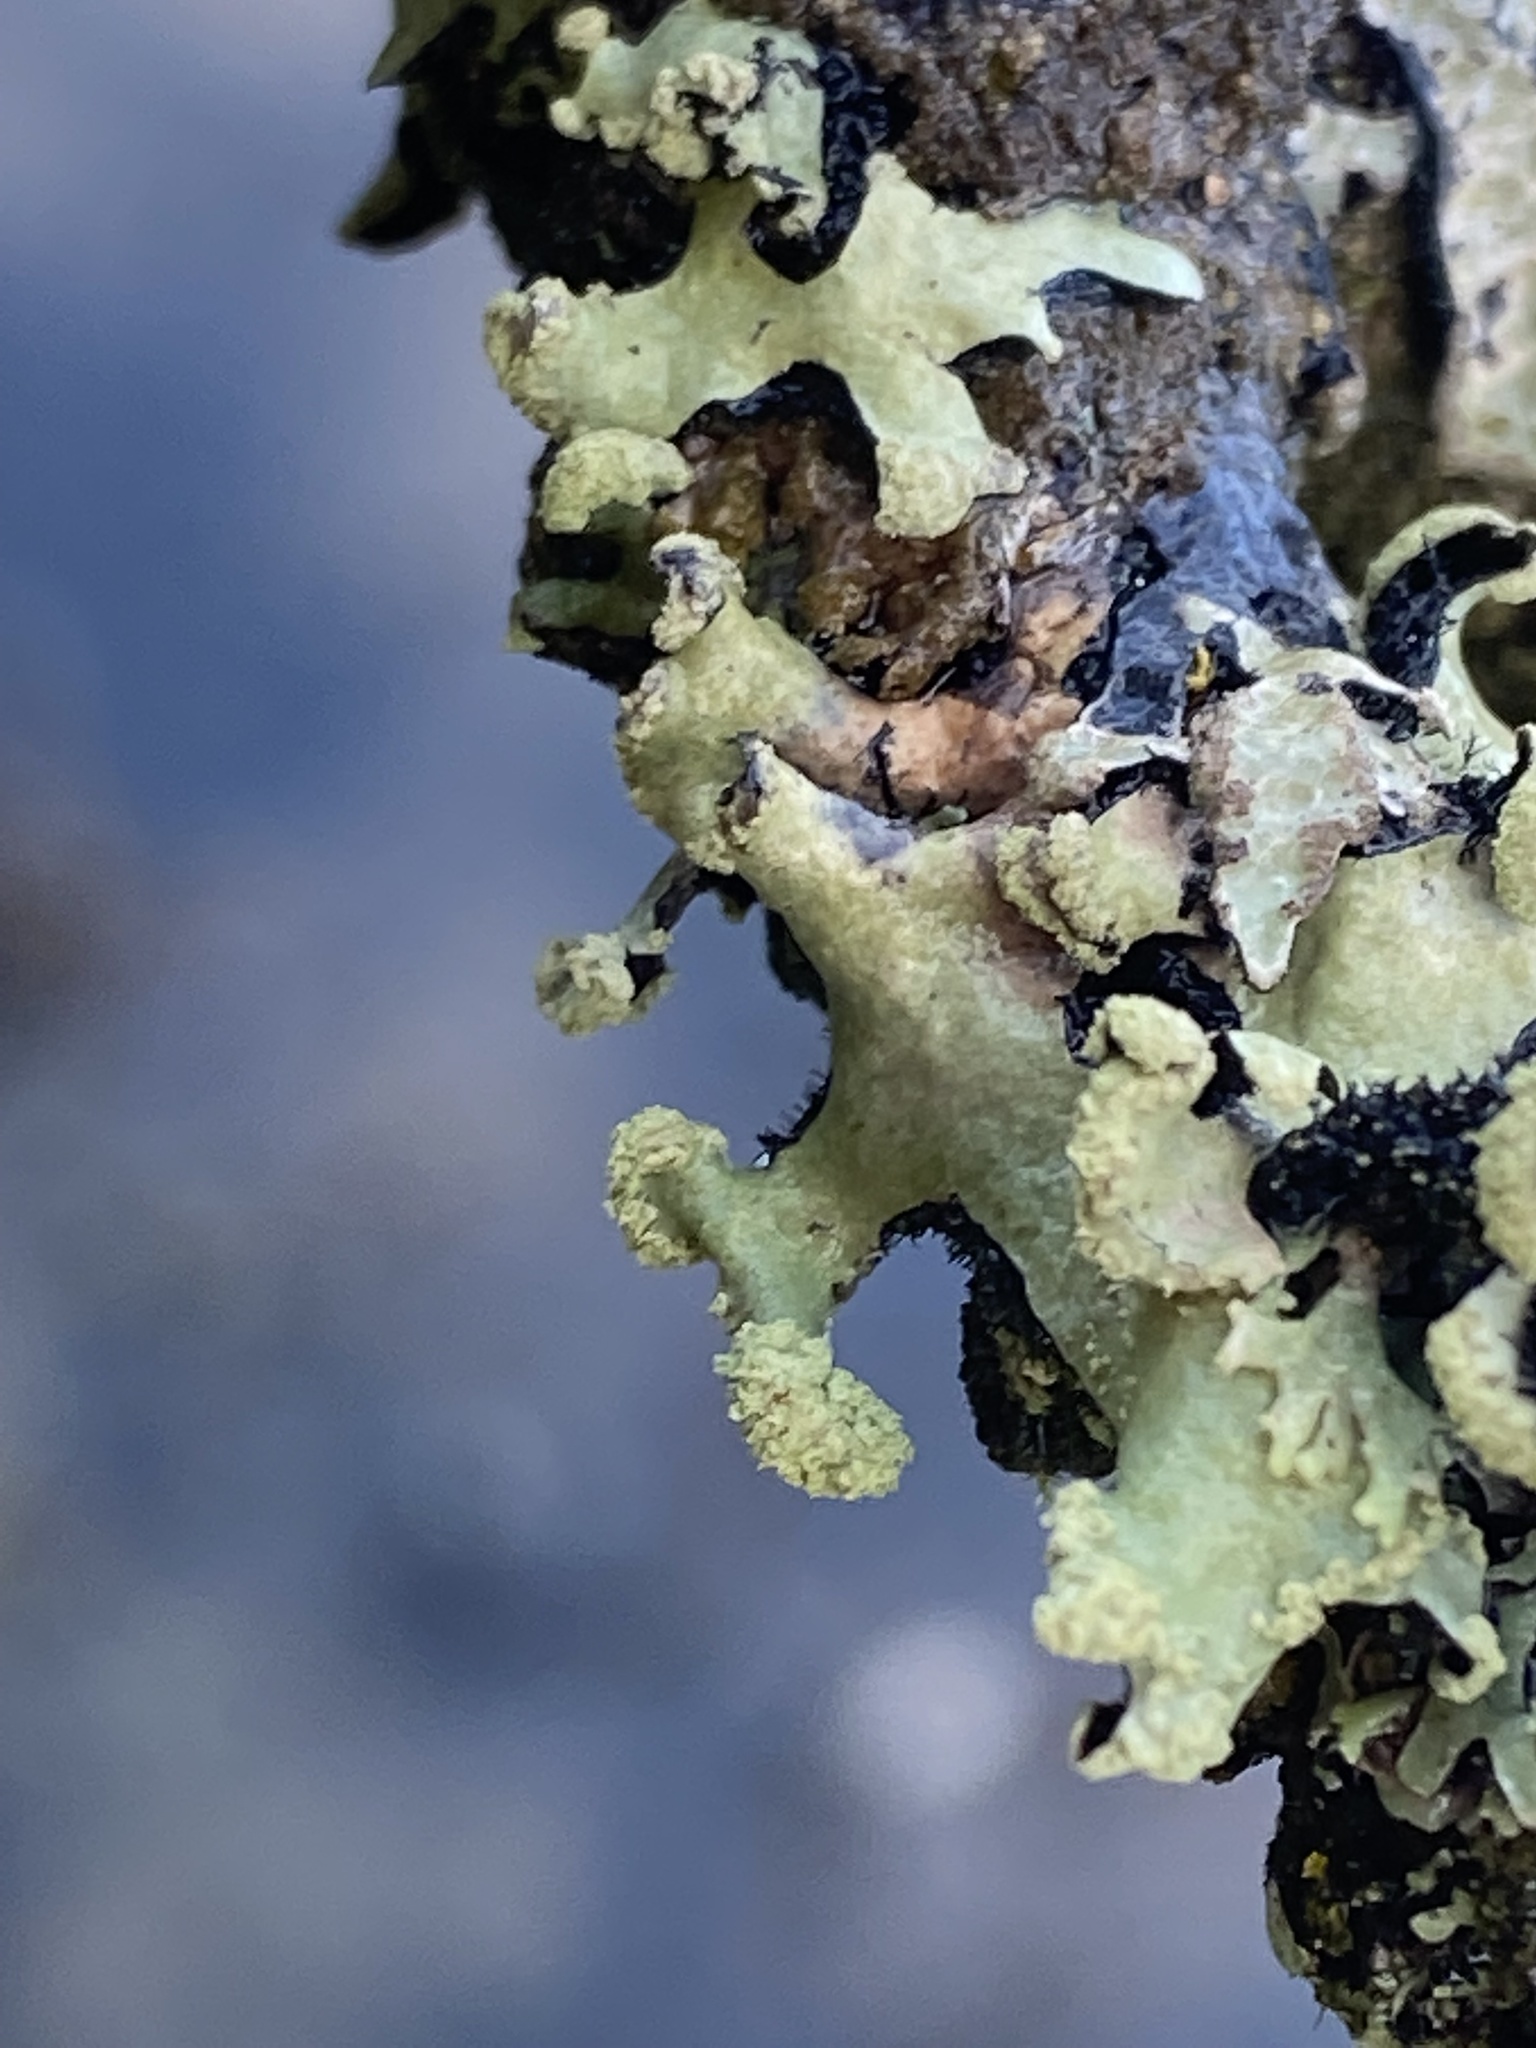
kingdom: Fungi
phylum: Ascomycota
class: Lecanoromycetes
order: Lecanorales
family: Parmeliaceae
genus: Hypotrachyna
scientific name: Hypotrachyna sinuosa
